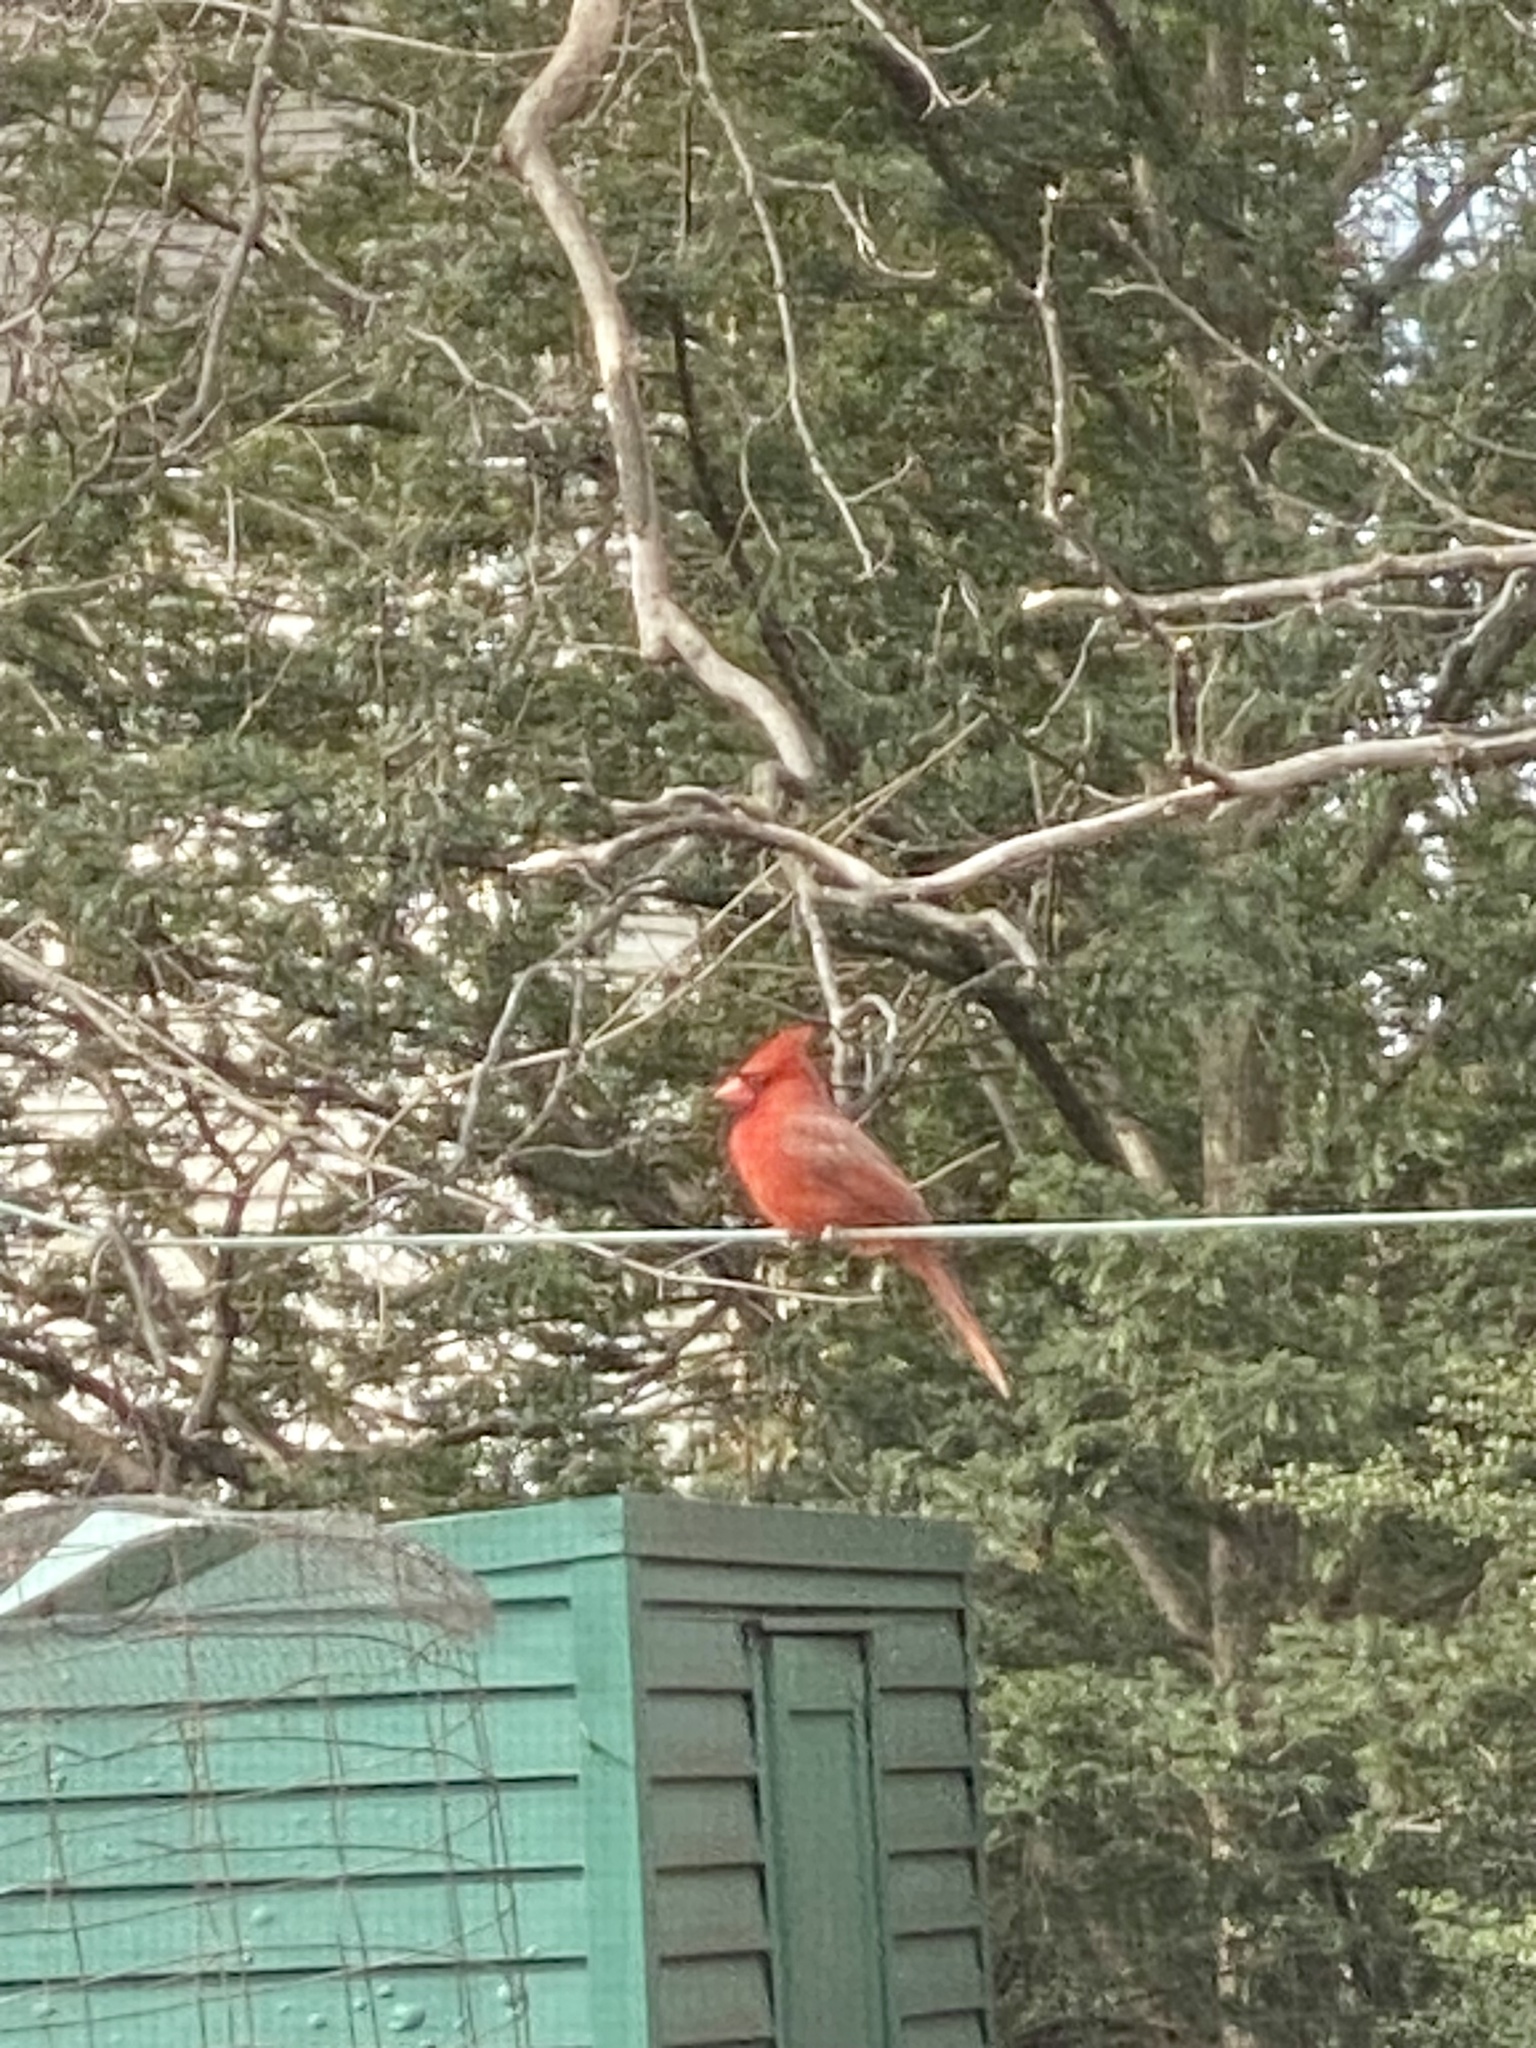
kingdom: Animalia
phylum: Chordata
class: Aves
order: Passeriformes
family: Cardinalidae
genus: Cardinalis
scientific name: Cardinalis cardinalis
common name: Northern cardinal
